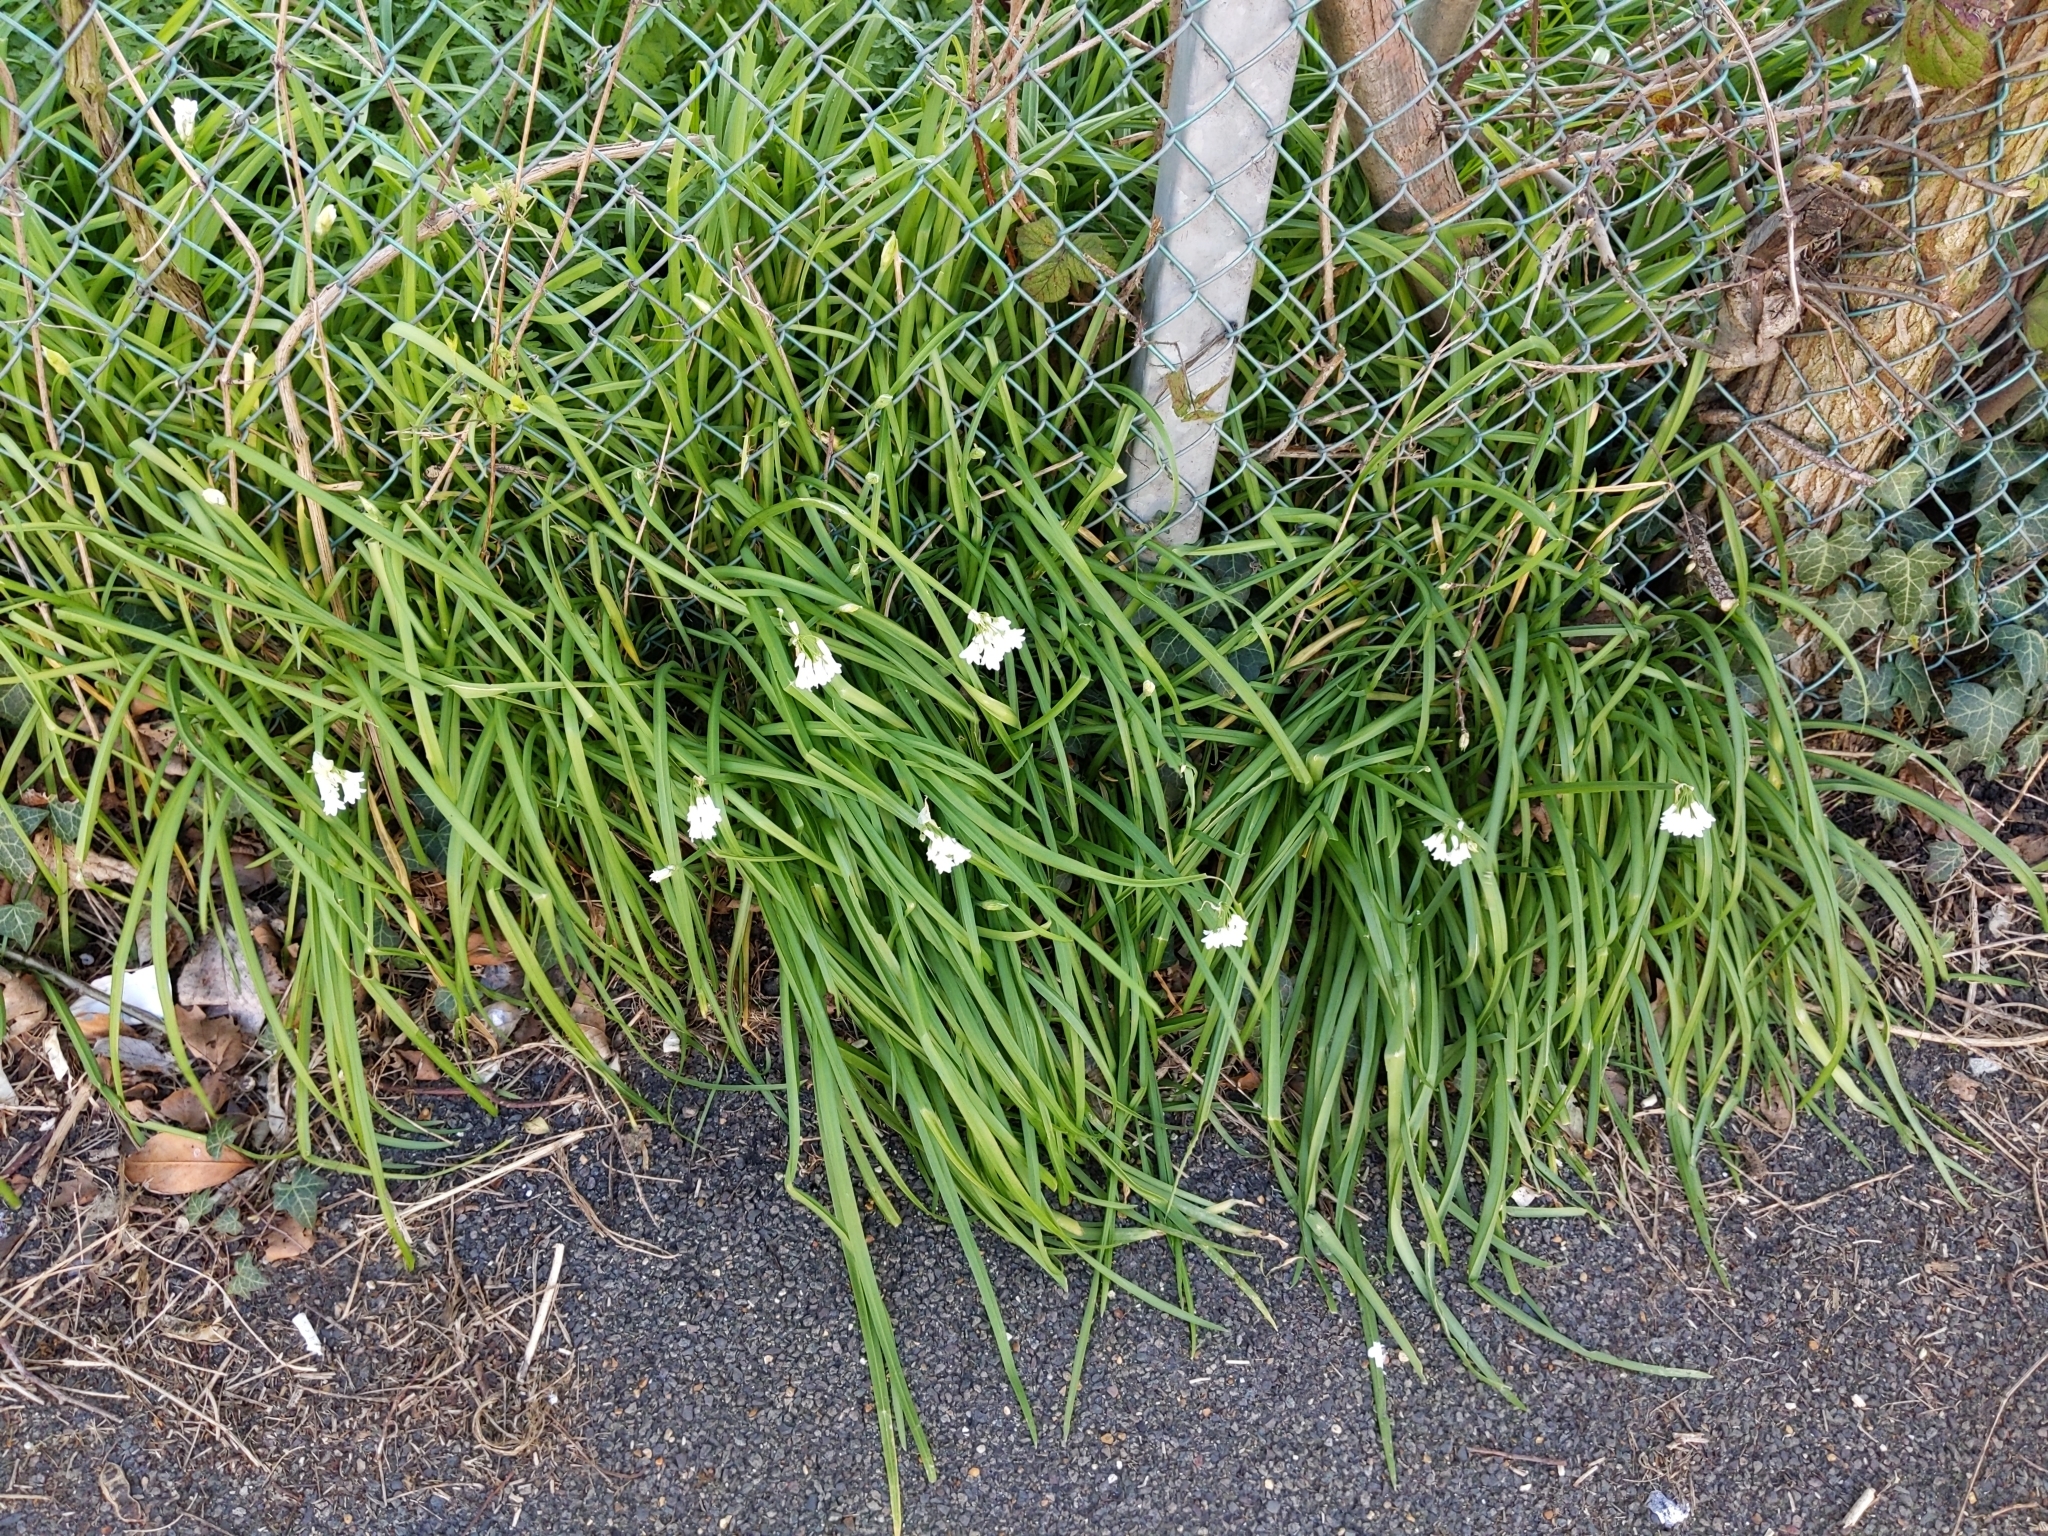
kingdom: Plantae
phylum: Tracheophyta
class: Liliopsida
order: Asparagales
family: Amaryllidaceae
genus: Allium
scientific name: Allium triquetrum
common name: Three-cornered garlic
